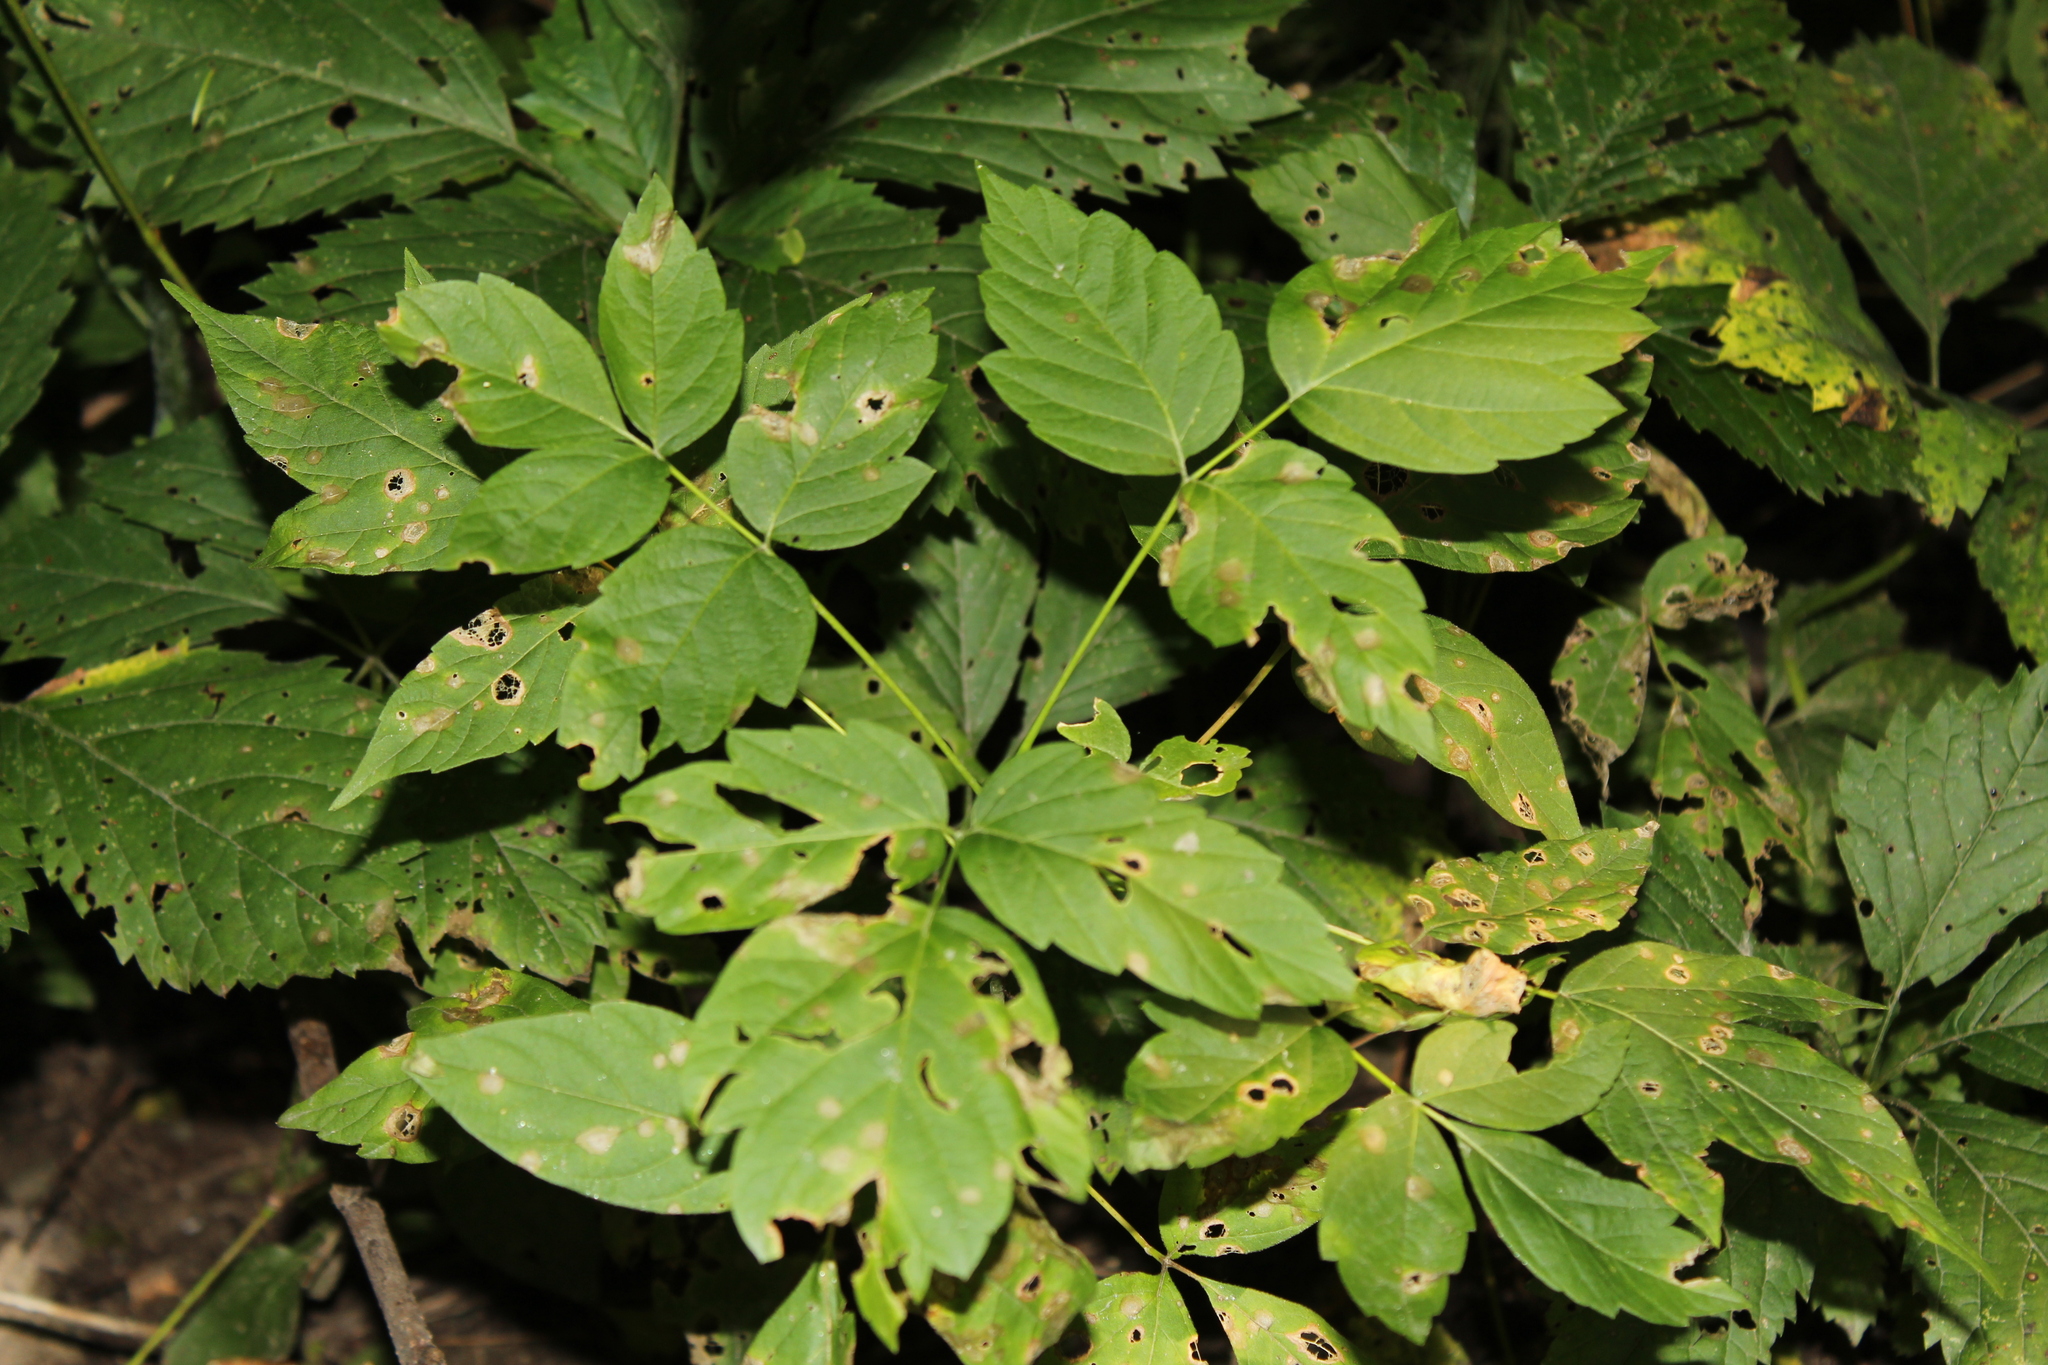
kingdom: Plantae
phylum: Tracheophyta
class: Magnoliopsida
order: Sapindales
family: Sapindaceae
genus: Acer
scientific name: Acer negundo
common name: Ashleaf maple
